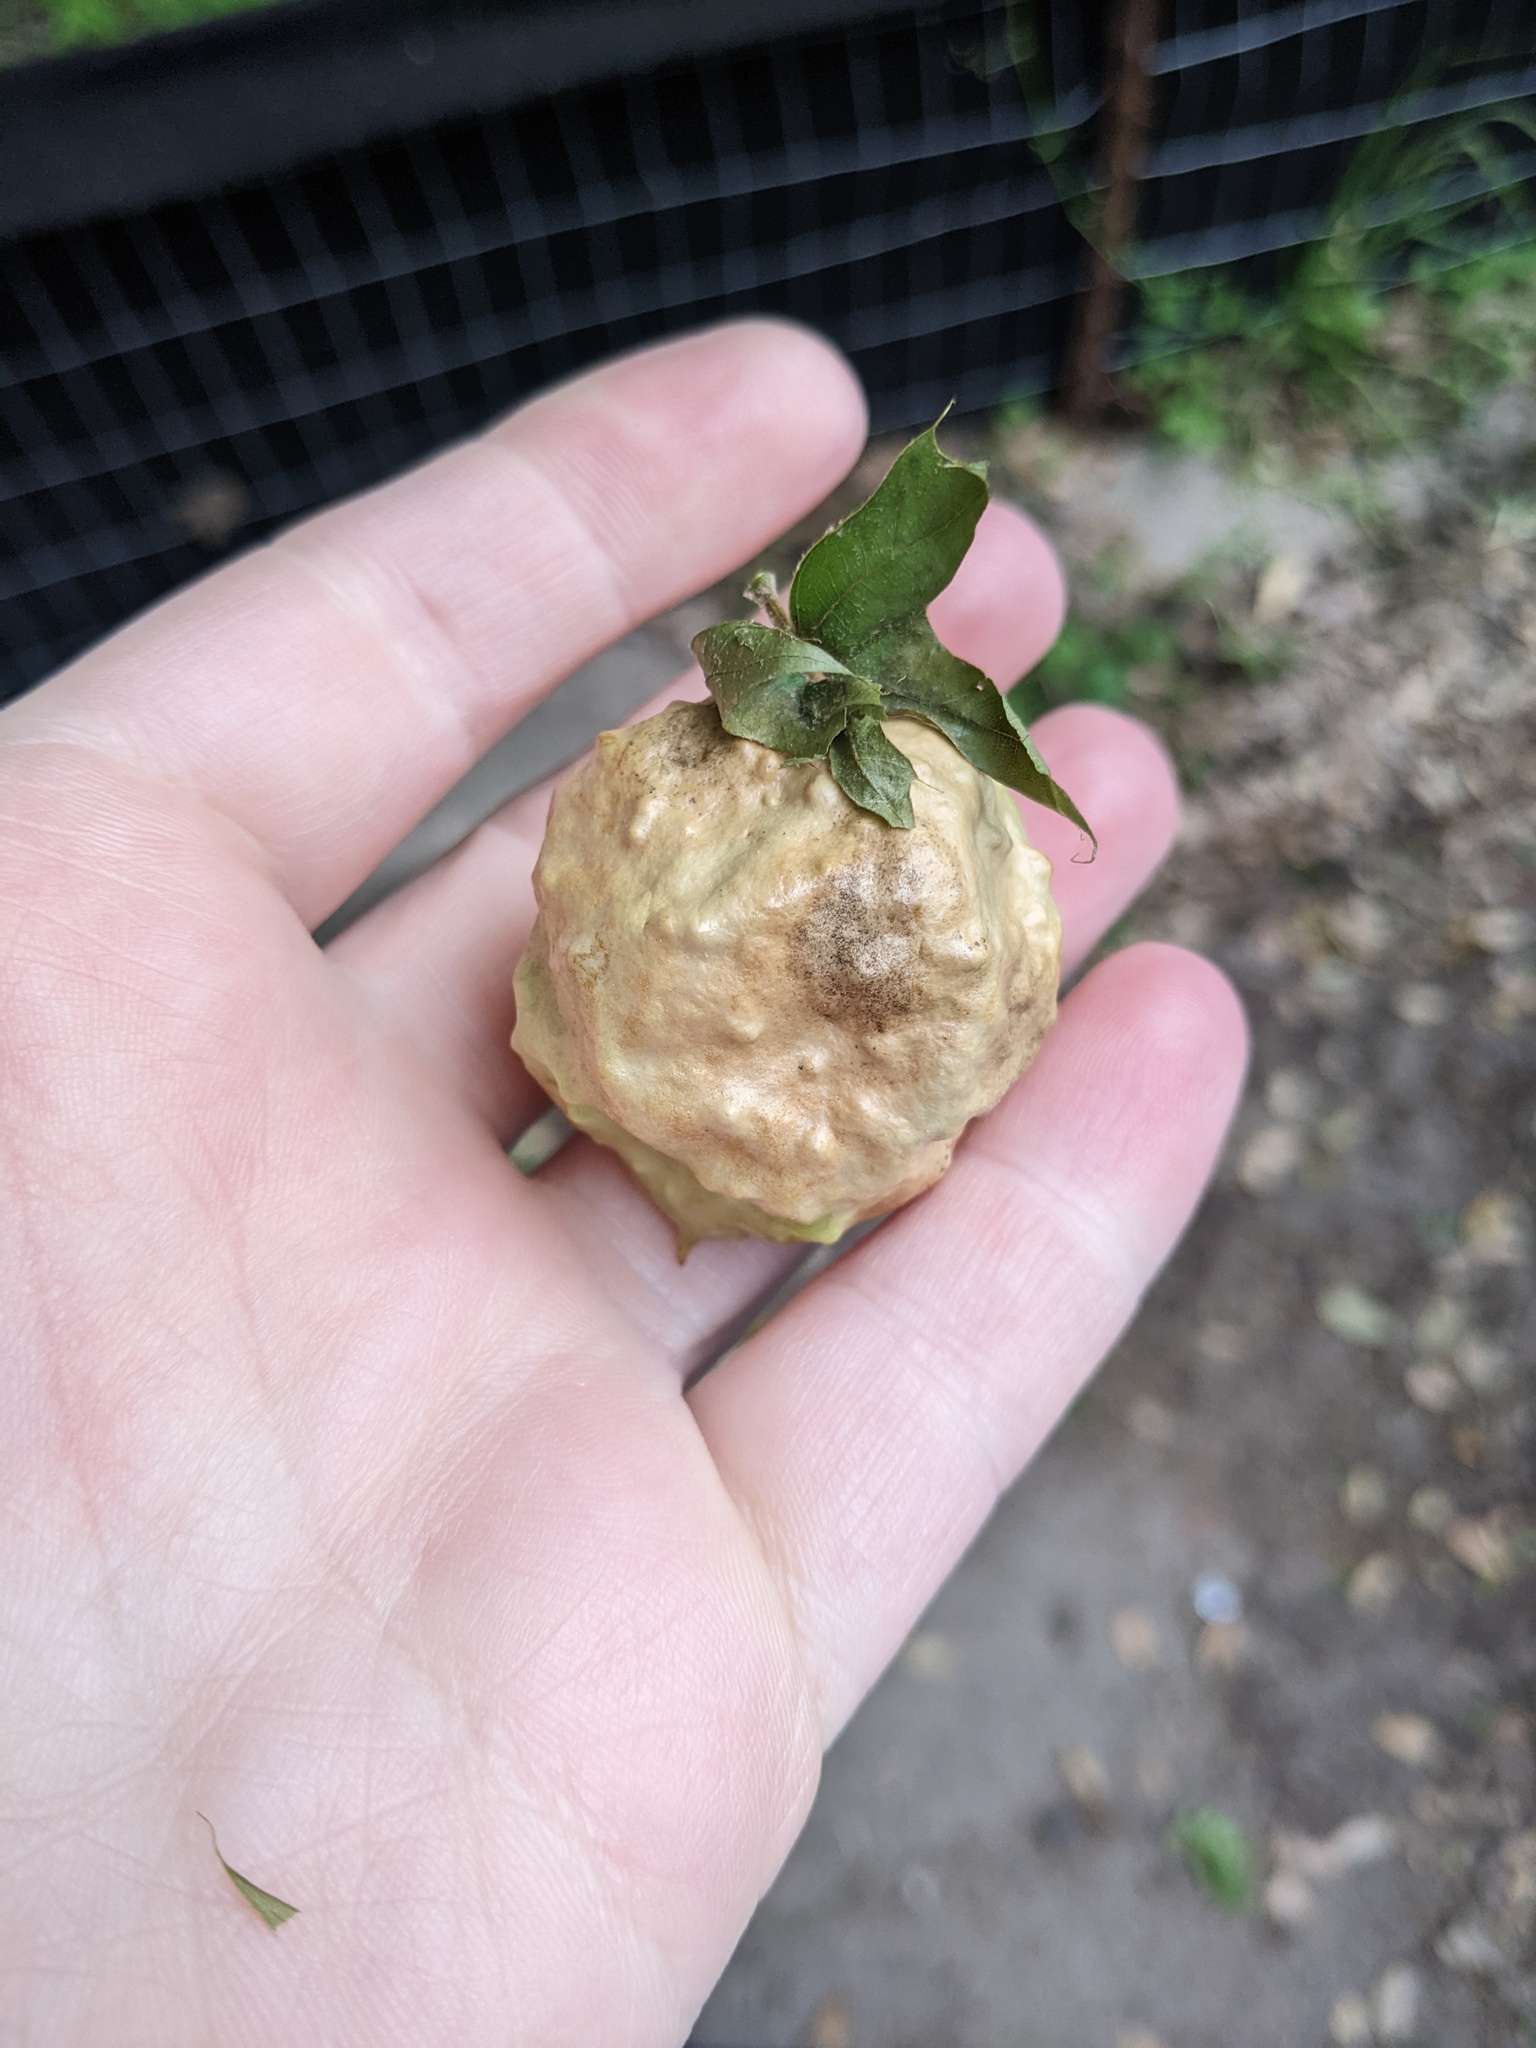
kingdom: Animalia
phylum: Arthropoda
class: Insecta
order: Hymenoptera
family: Cynipidae
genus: Amphibolips
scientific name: Amphibolips
